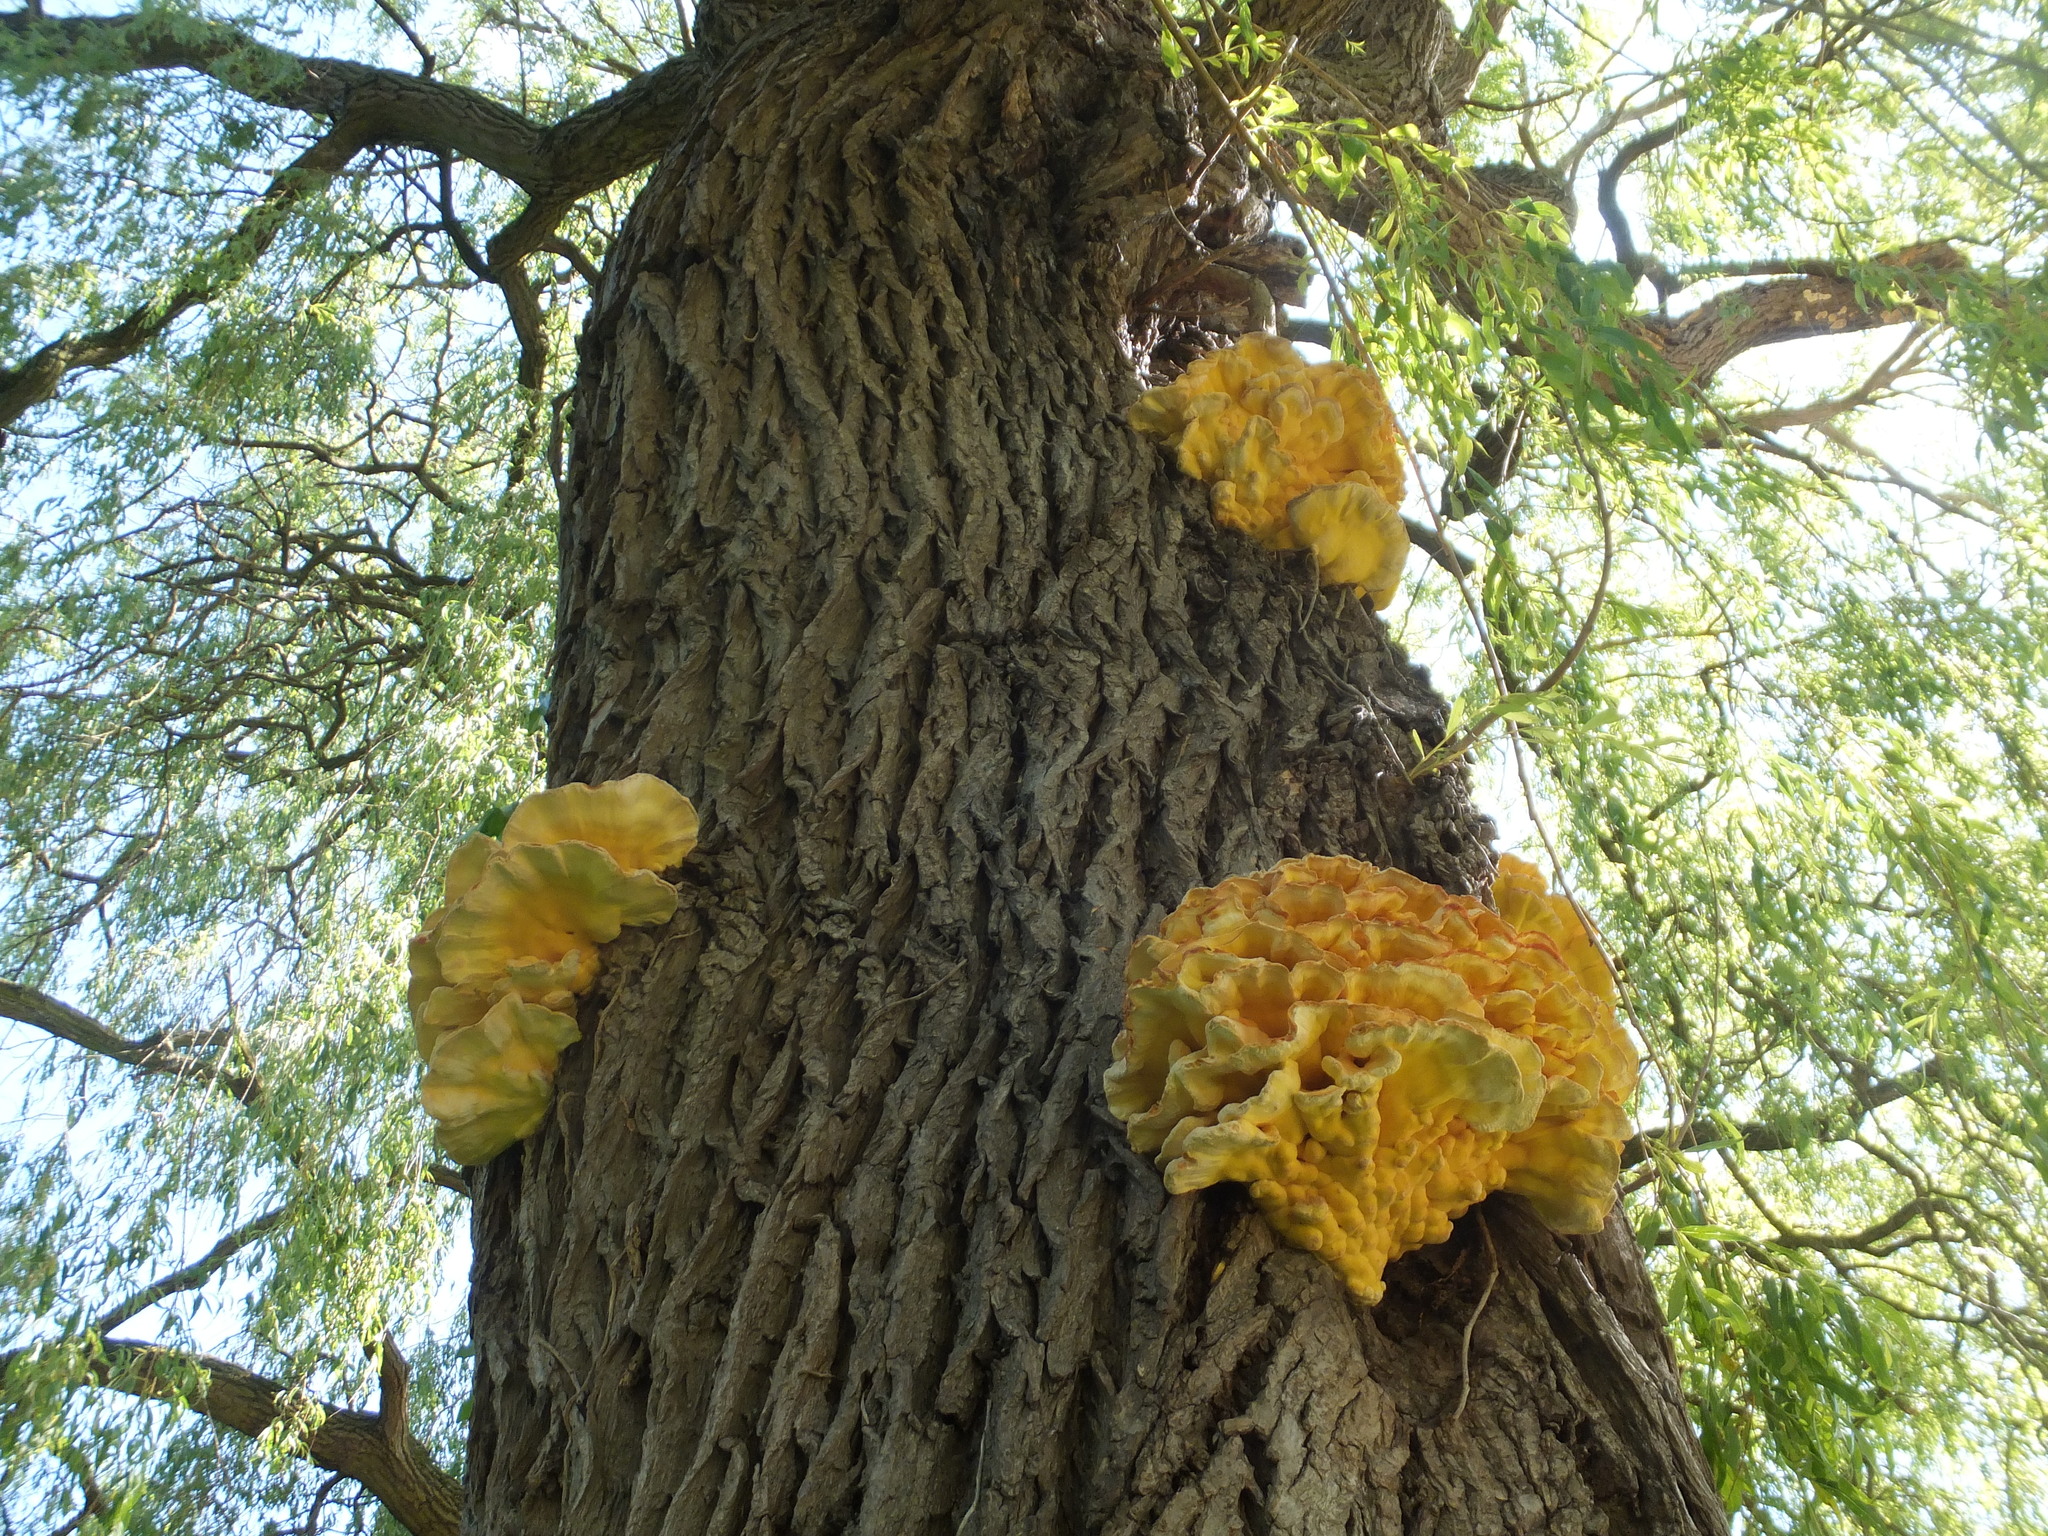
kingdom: Fungi
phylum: Basidiomycota
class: Agaricomycetes
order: Polyporales
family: Laetiporaceae
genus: Laetiporus
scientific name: Laetiporus sulphureus
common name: Chicken of the woods
